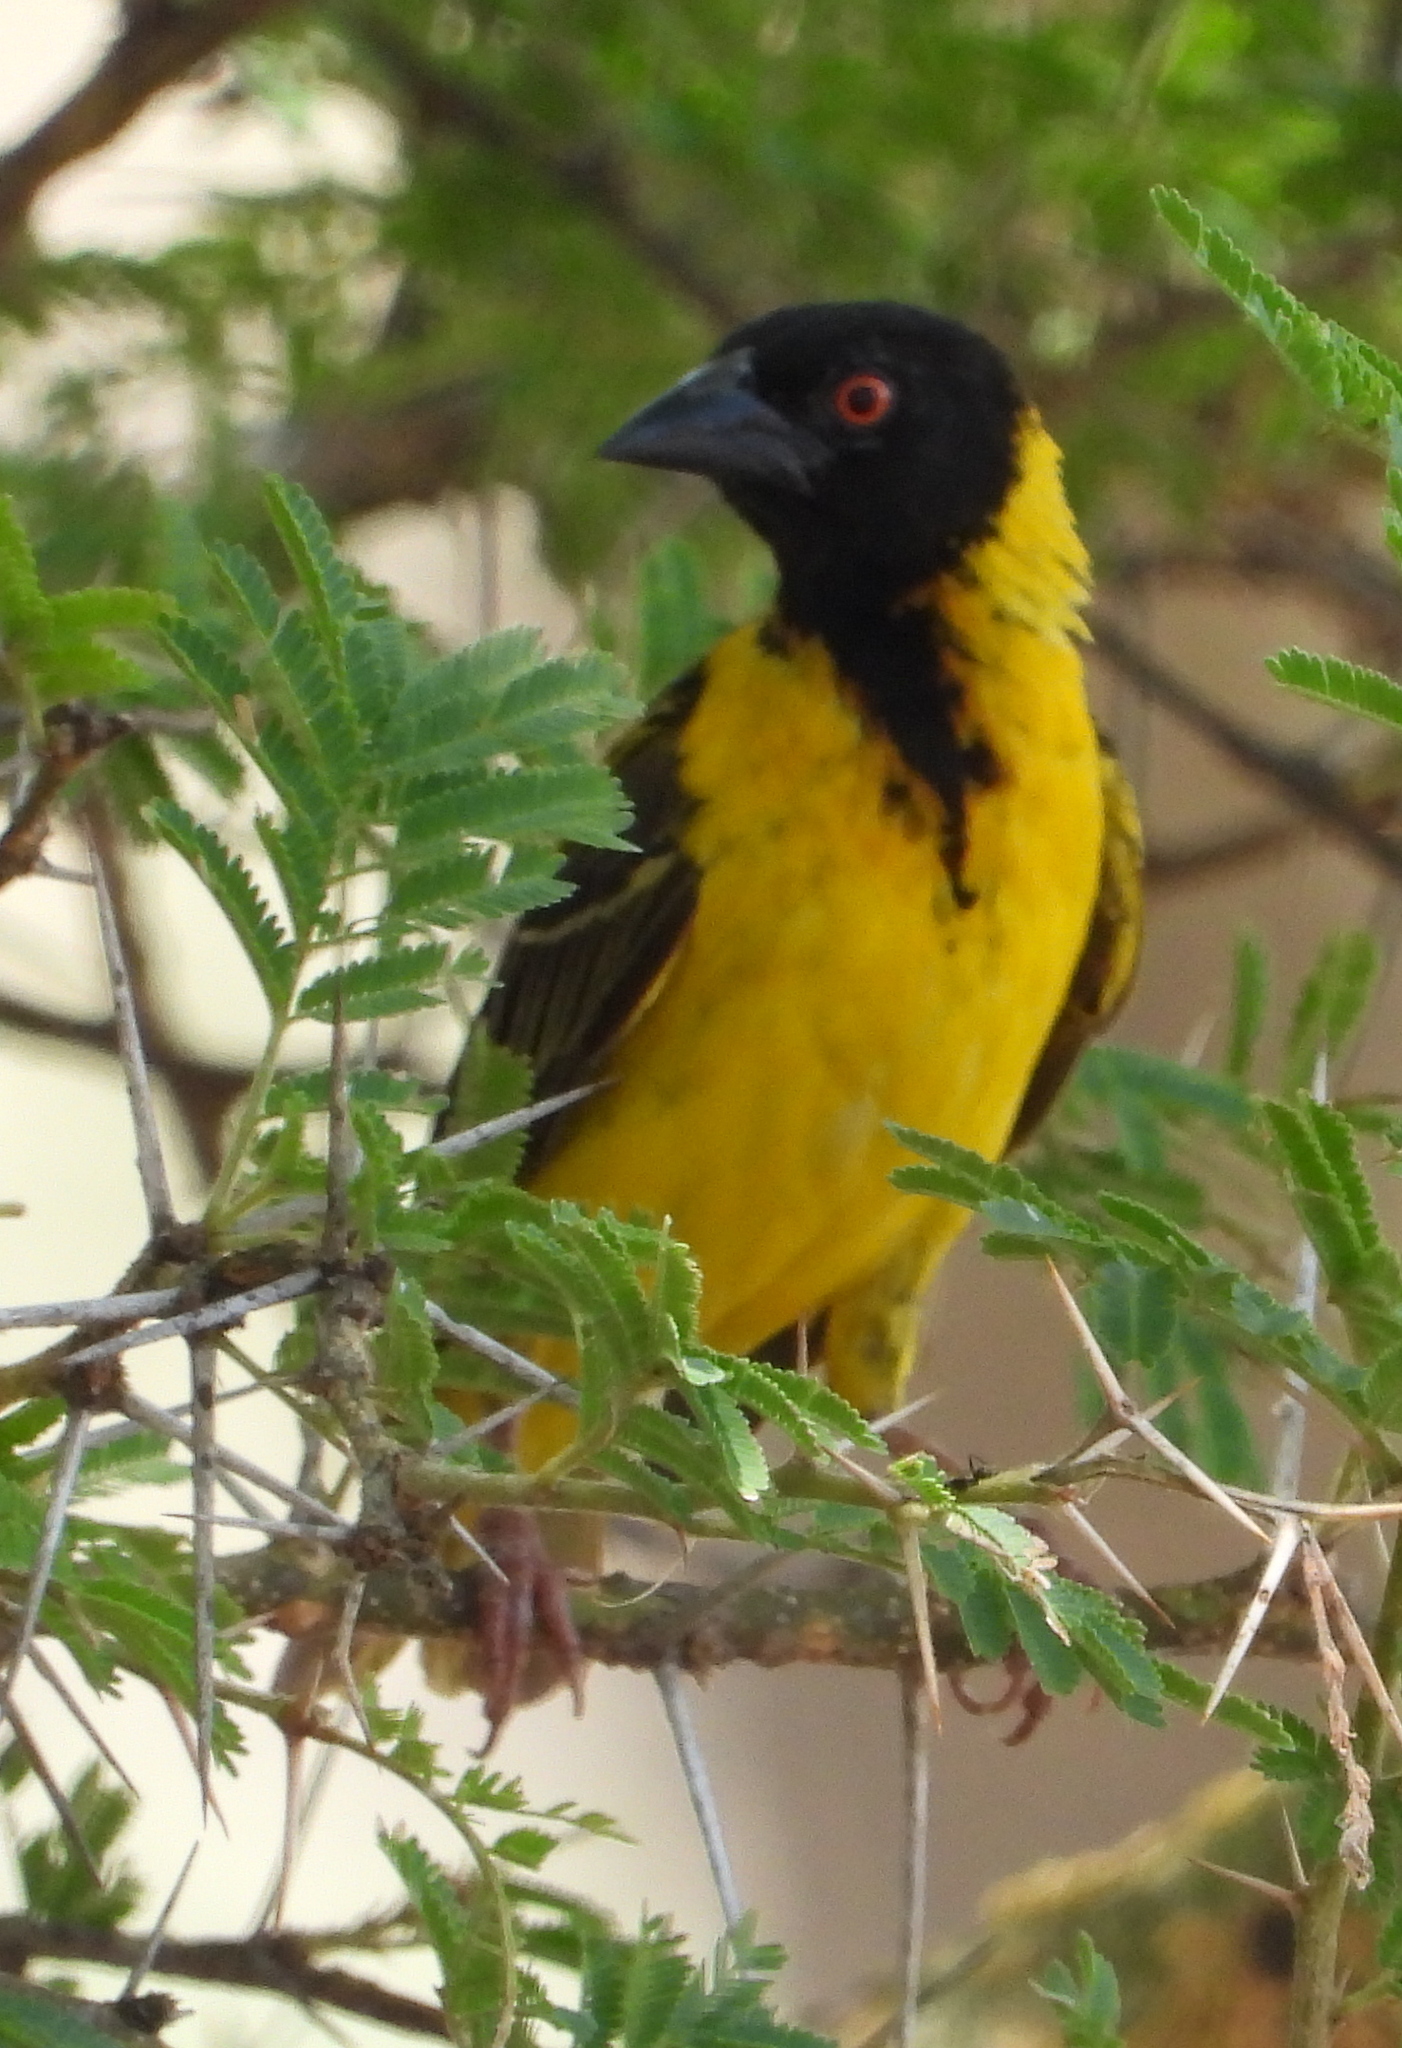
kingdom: Animalia
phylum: Chordata
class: Aves
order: Passeriformes
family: Ploceidae
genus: Ploceus
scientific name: Ploceus cucullatus
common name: Village weaver
